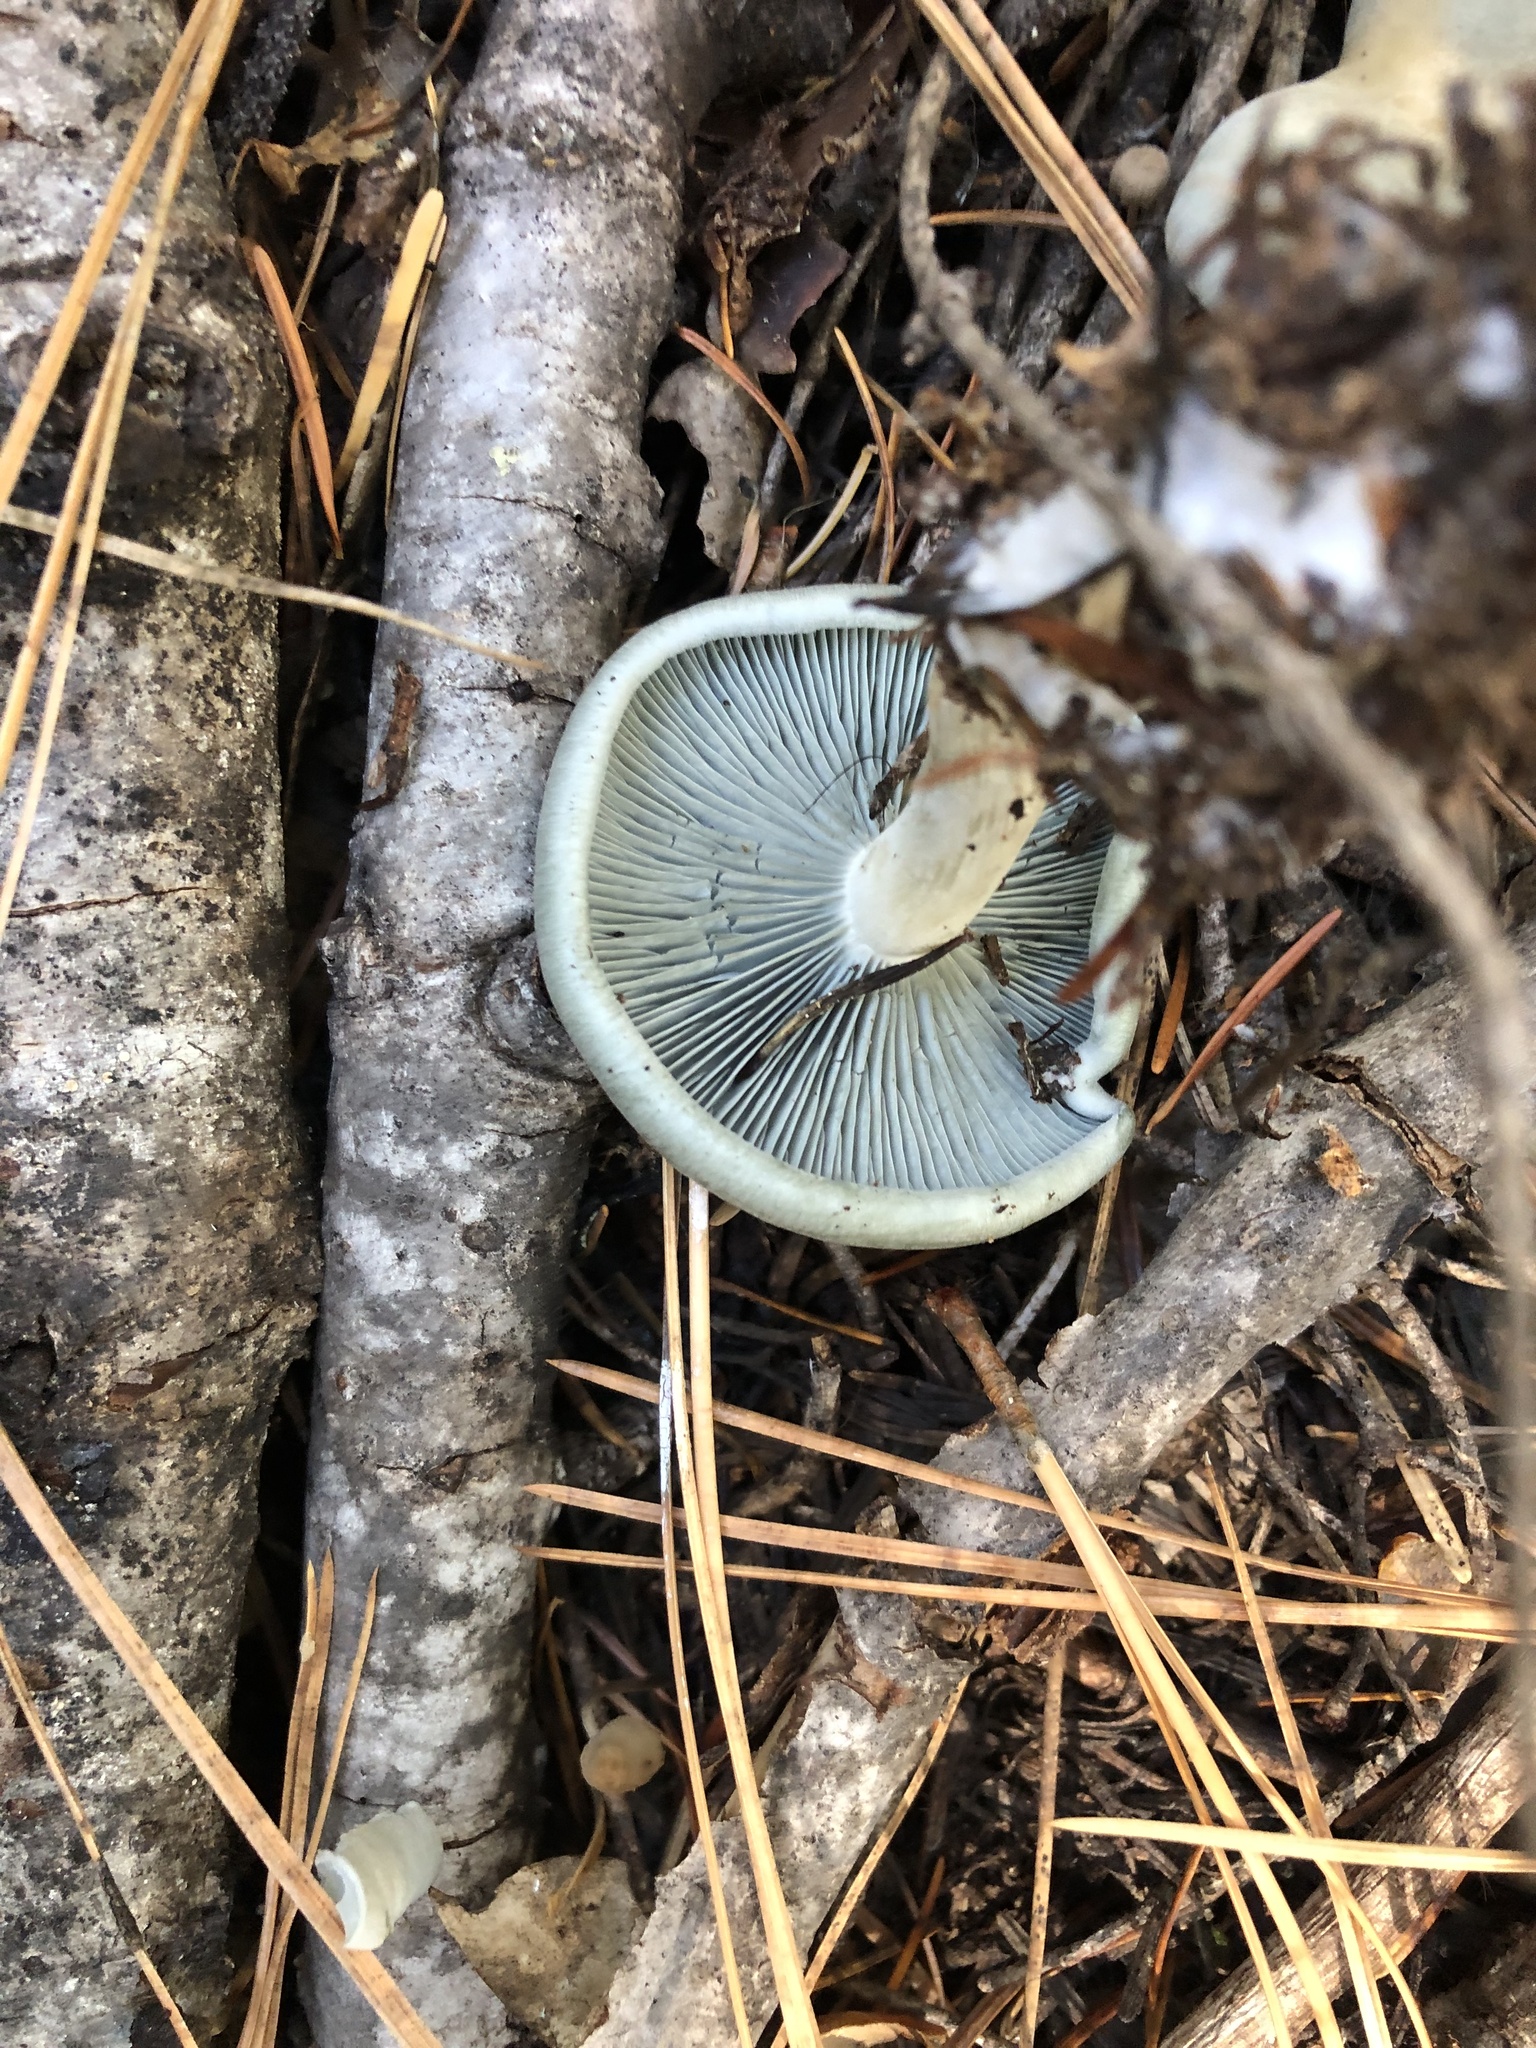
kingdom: Fungi
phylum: Basidiomycota
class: Agaricomycetes
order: Agaricales
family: Tricholomataceae
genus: Collybia
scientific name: Collybia
